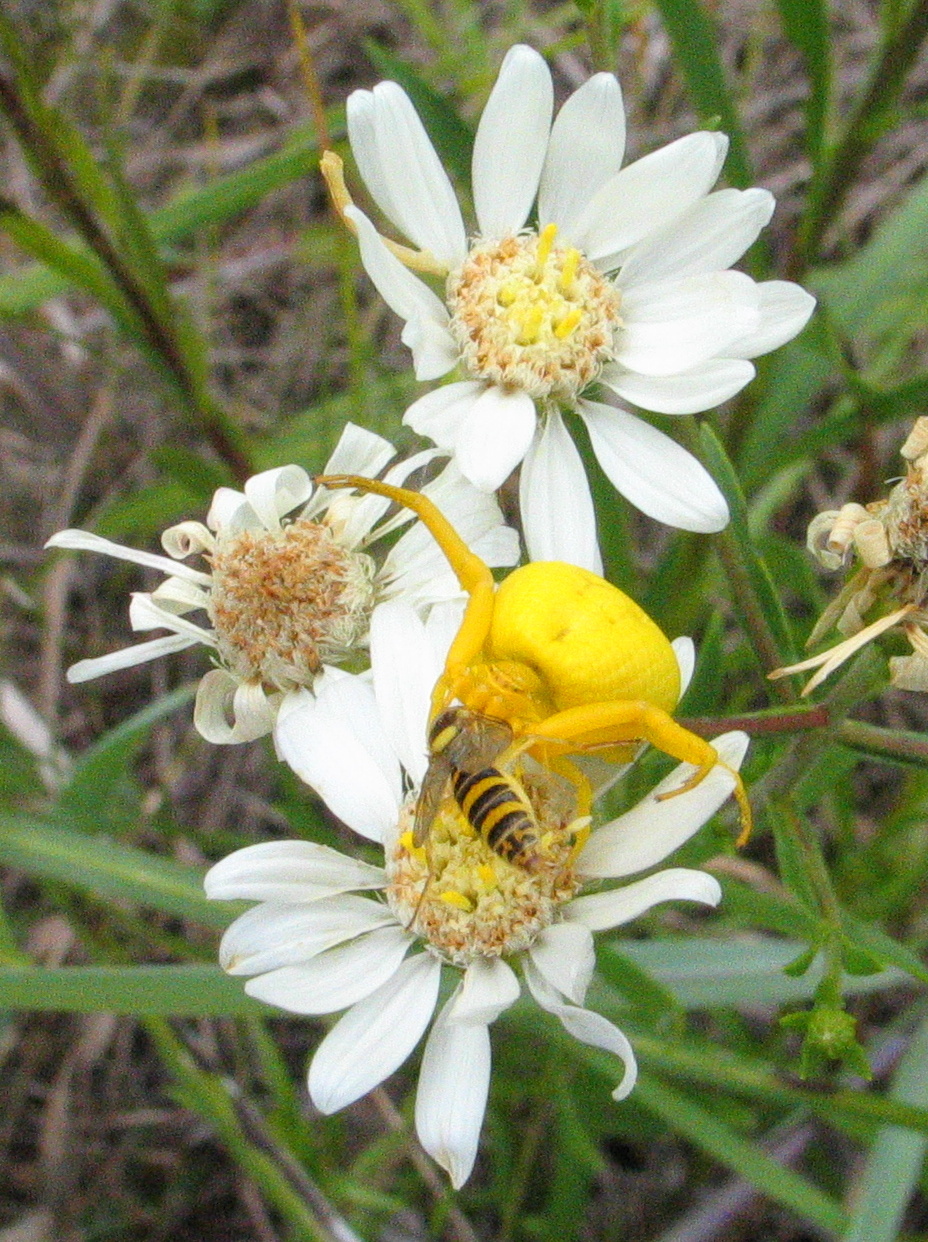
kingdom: Animalia
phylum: Arthropoda
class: Arachnida
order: Araneae
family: Thomisidae
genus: Misumenoides
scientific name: Misumenoides formosipes
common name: White-banded crab spider
